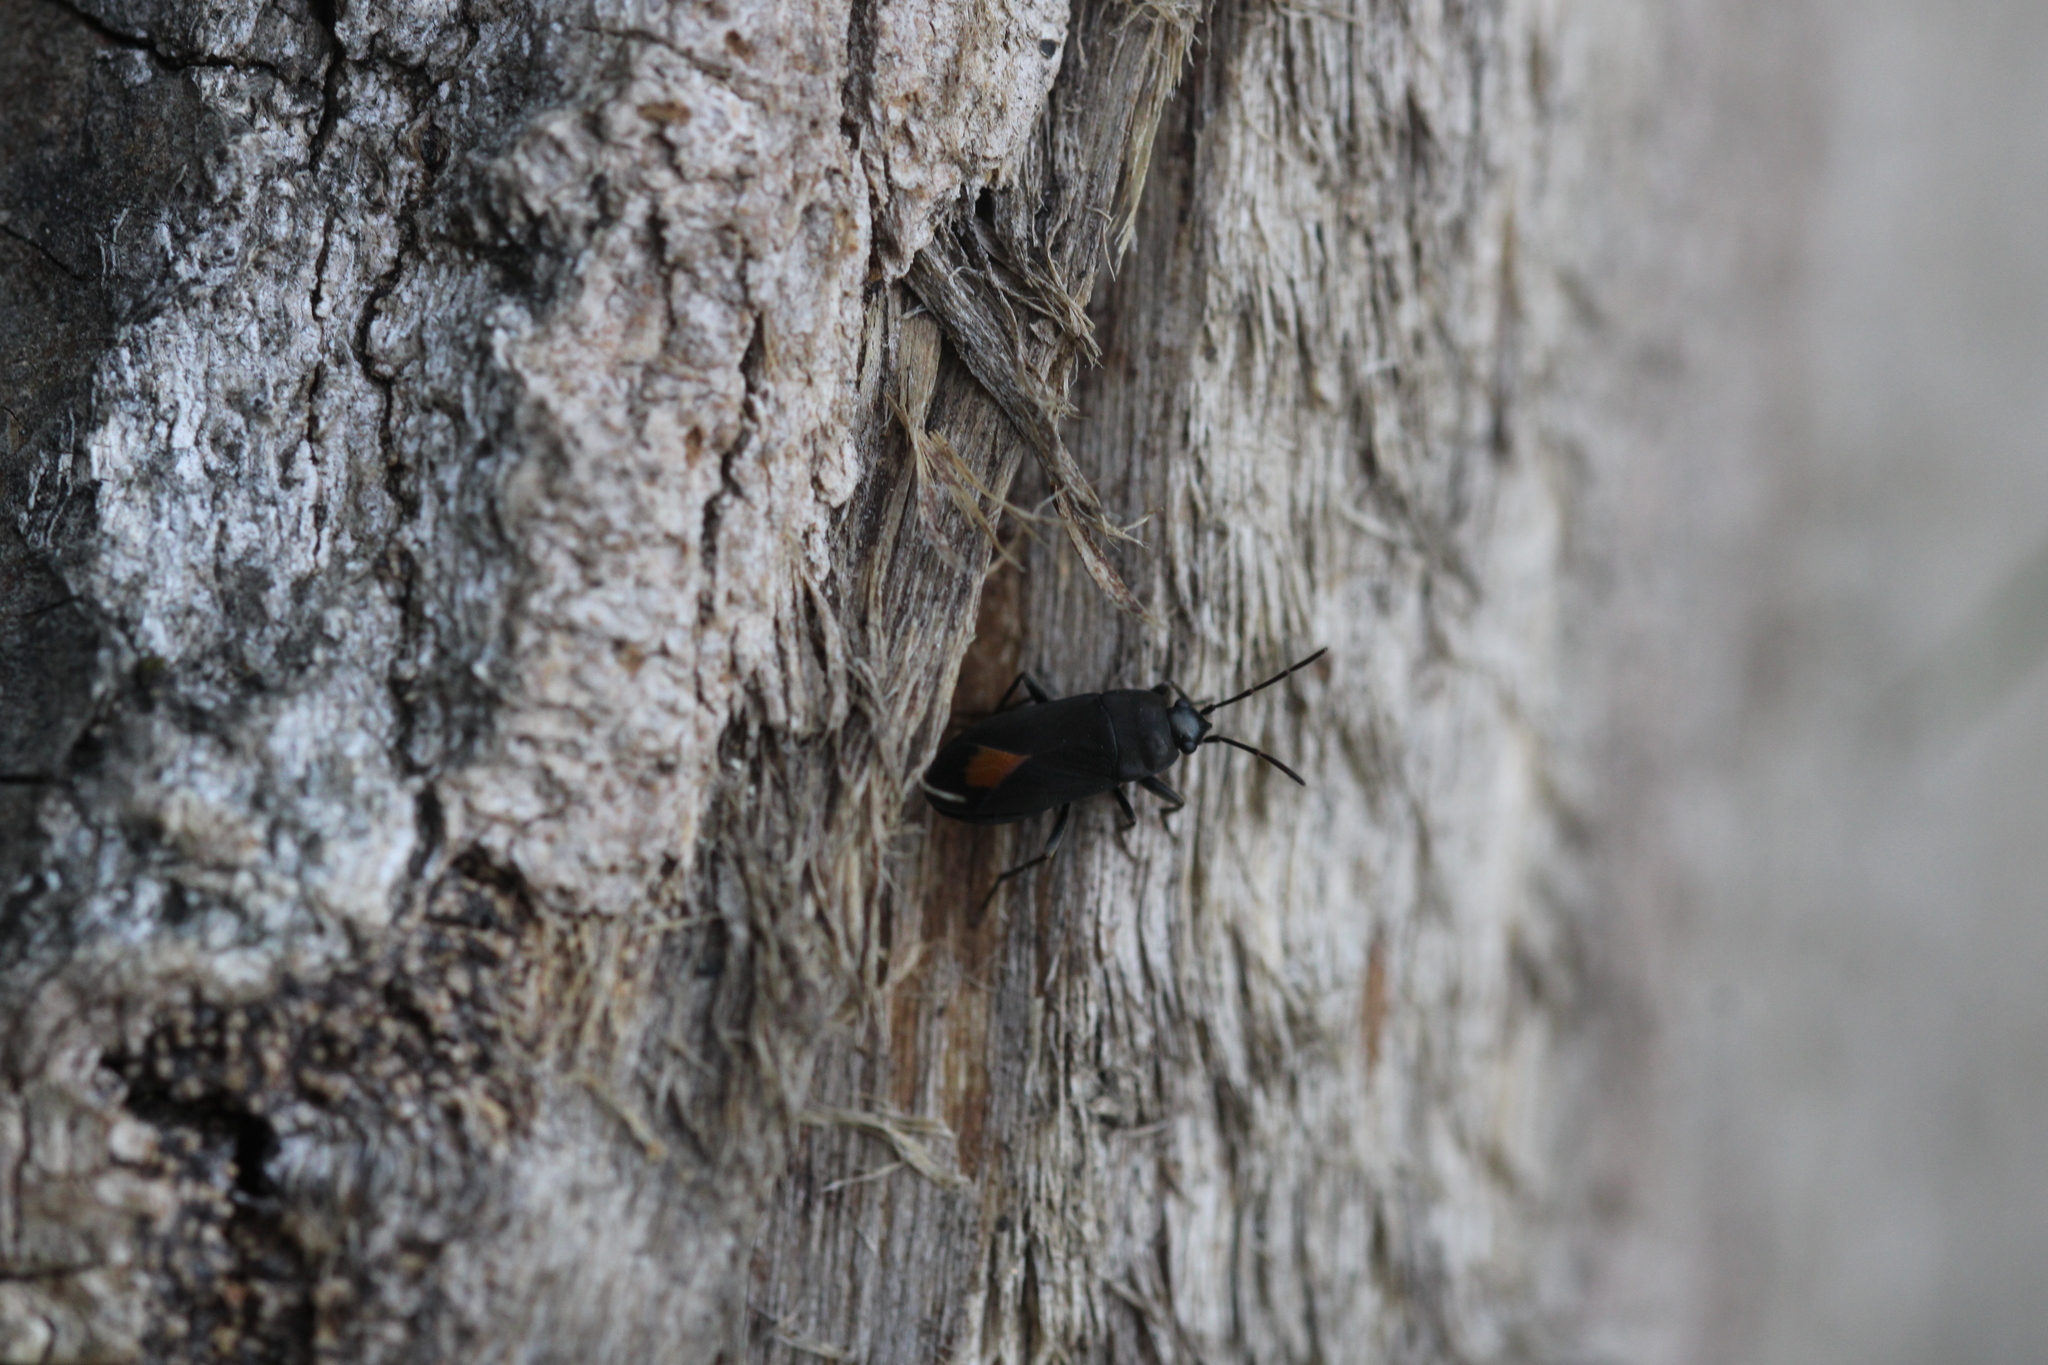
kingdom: Animalia
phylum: Arthropoda
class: Insecta
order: Hemiptera
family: Rhyparochromidae
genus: Aphanus
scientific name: Aphanus rolandri
